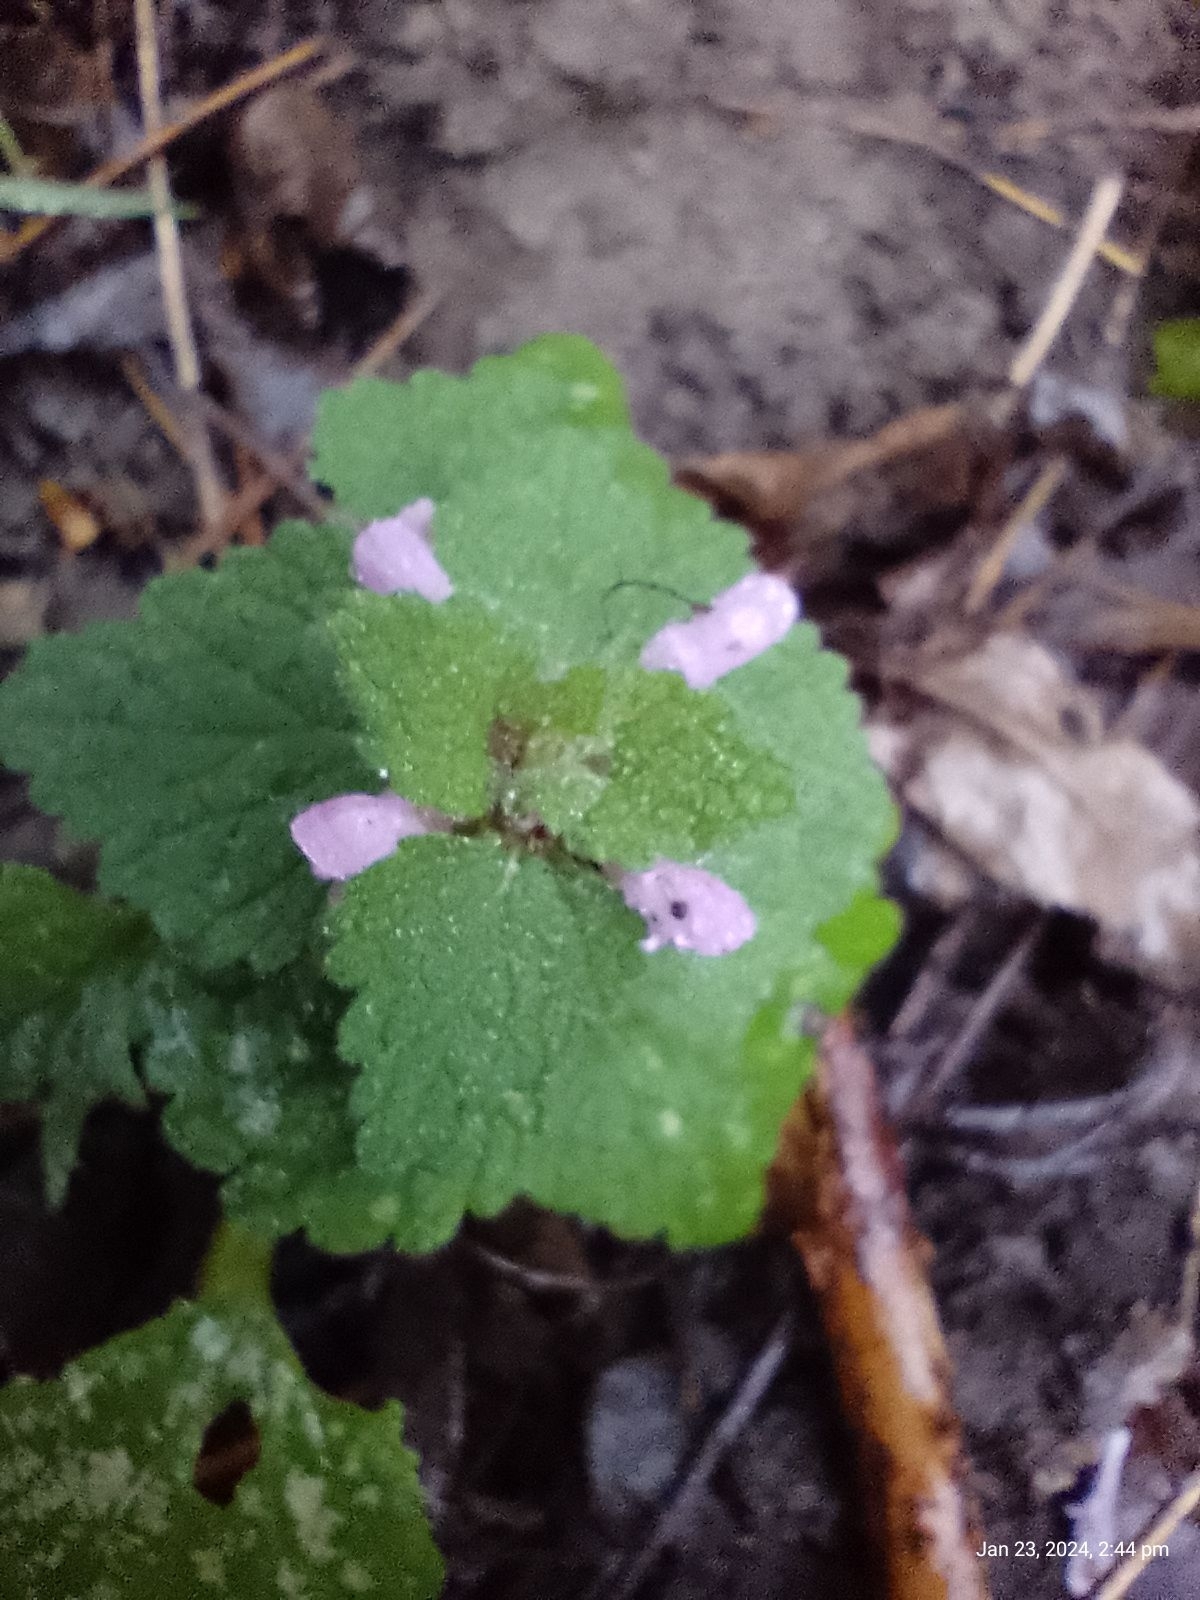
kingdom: Plantae
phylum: Tracheophyta
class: Magnoliopsida
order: Lamiales
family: Lamiaceae
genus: Lamium
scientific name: Lamium purpureum
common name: Red dead-nettle
